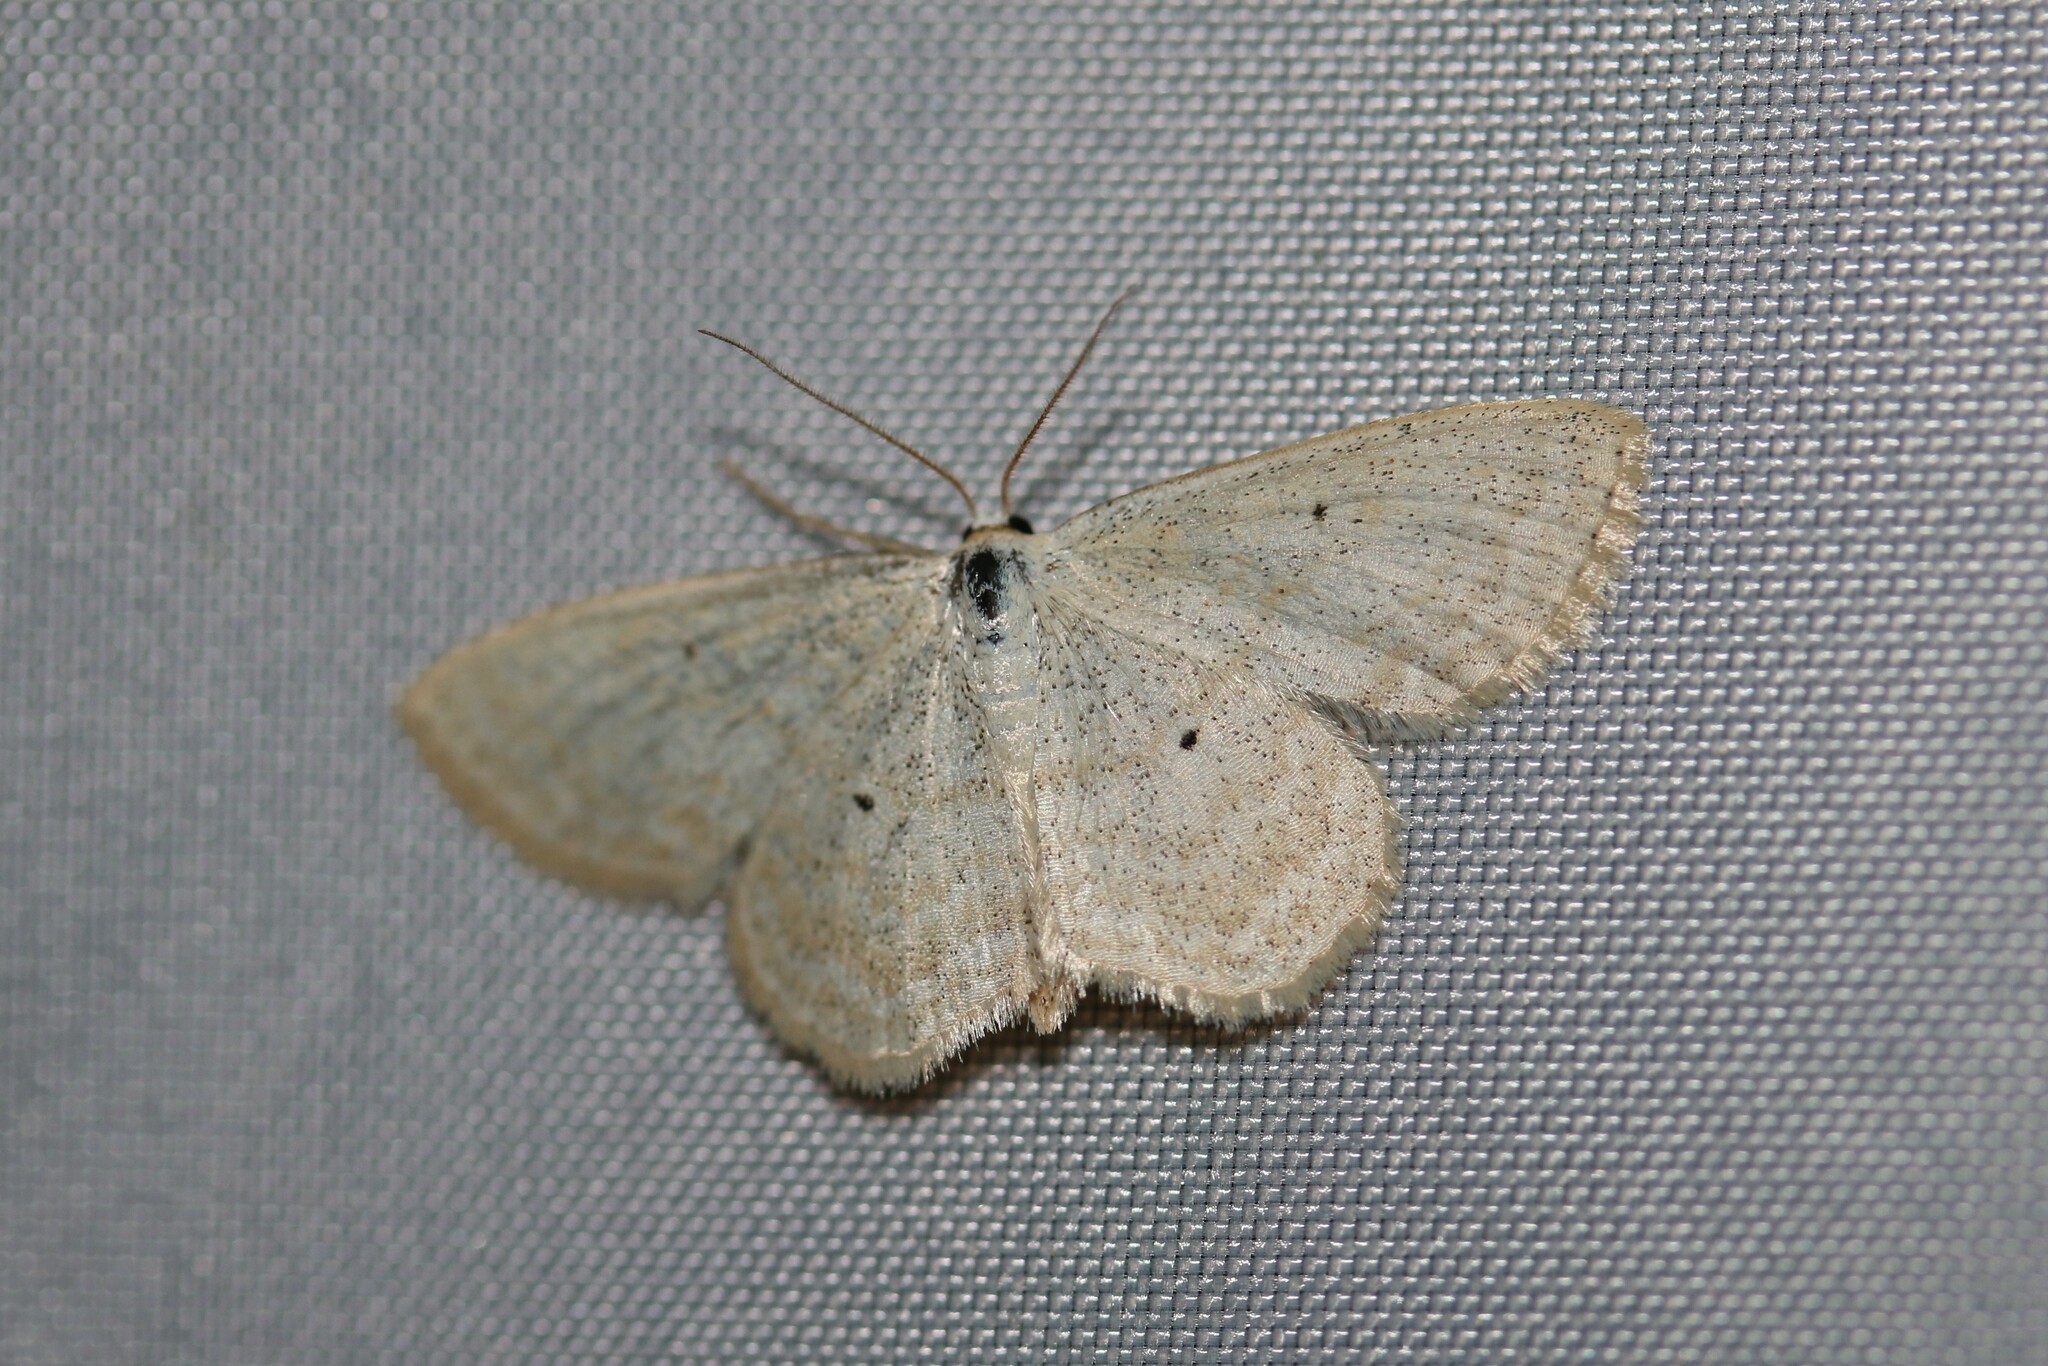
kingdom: Animalia
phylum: Arthropoda
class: Insecta
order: Lepidoptera
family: Geometridae
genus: Scopula
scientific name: Scopula immutata
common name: Lesser cream wave
